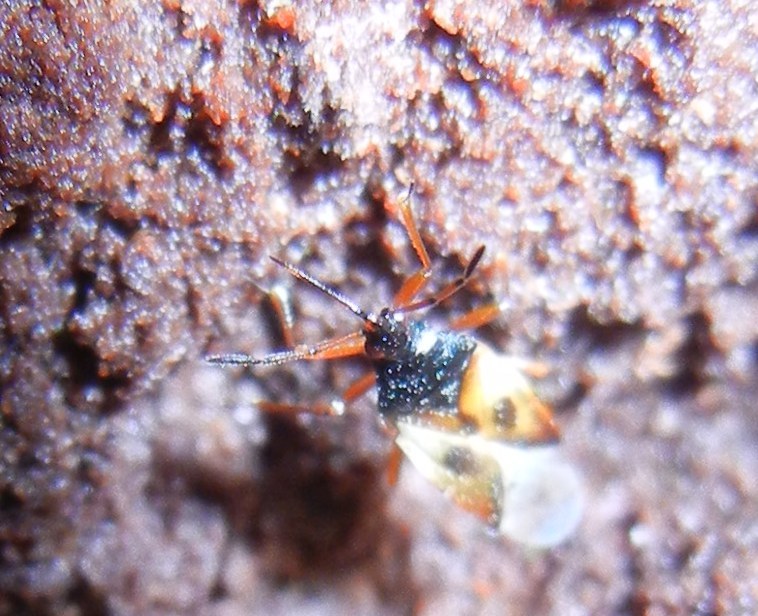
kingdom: Animalia
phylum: Arthropoda
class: Insecta
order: Hemiptera
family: Anthocoridae
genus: Anthocoris
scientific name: Anthocoris nemorum
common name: Minute pirate bug
